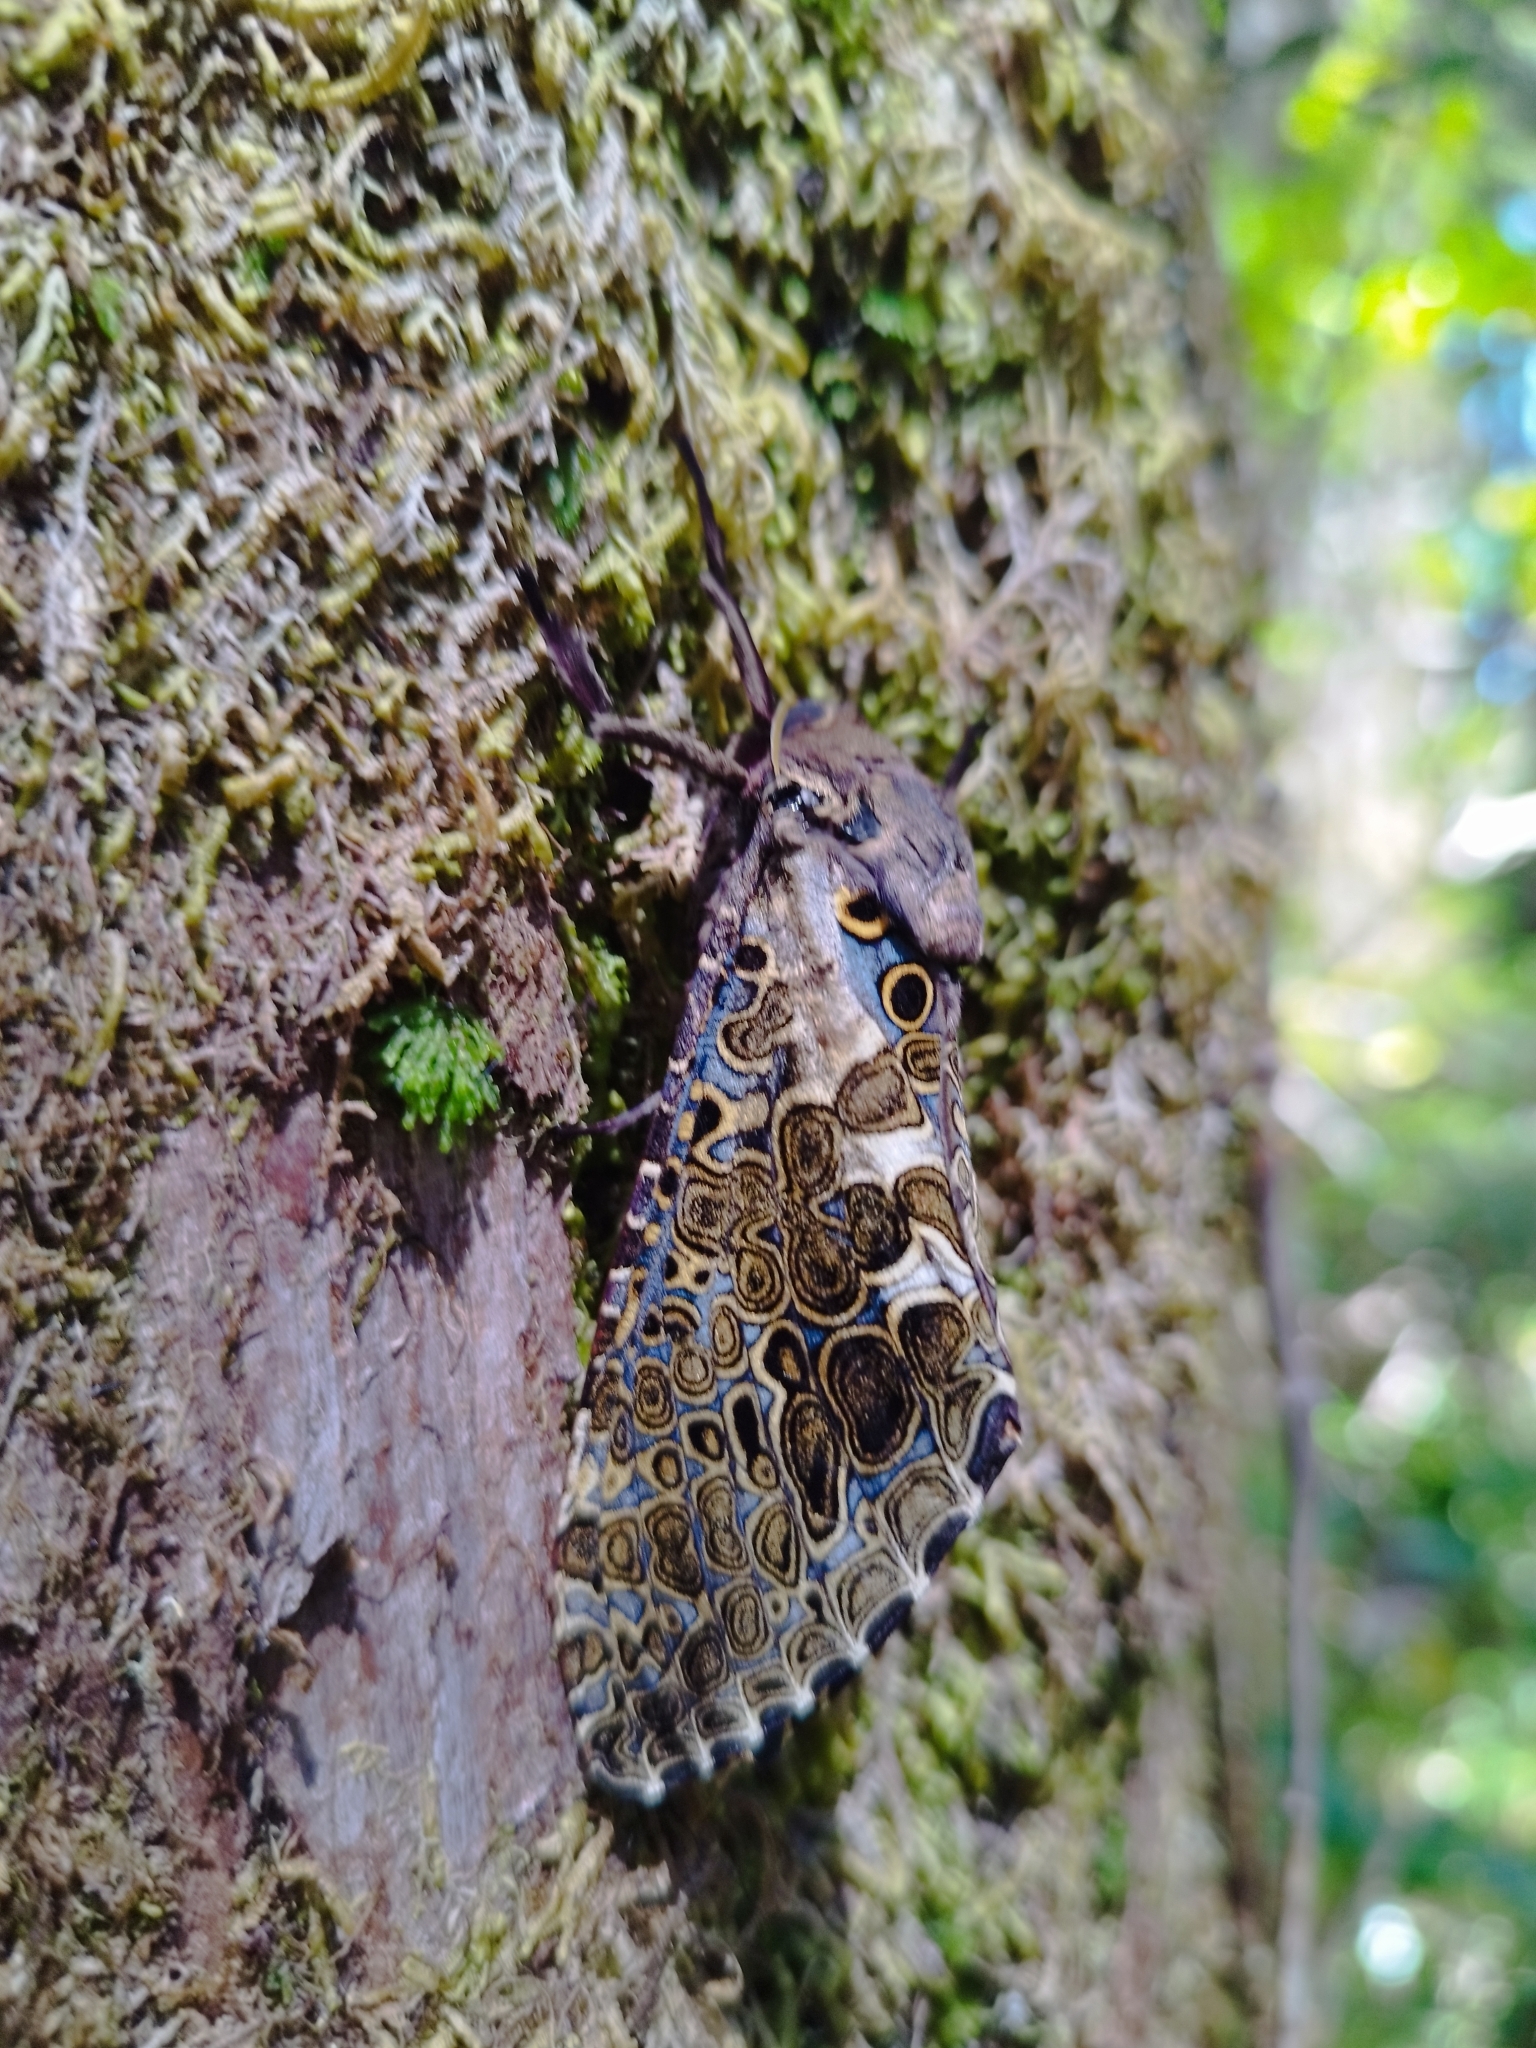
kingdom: Animalia
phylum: Arthropoda
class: Insecta
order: Lepidoptera
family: Hepialidae
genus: Andeabatis
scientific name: Andeabatis chilensis
